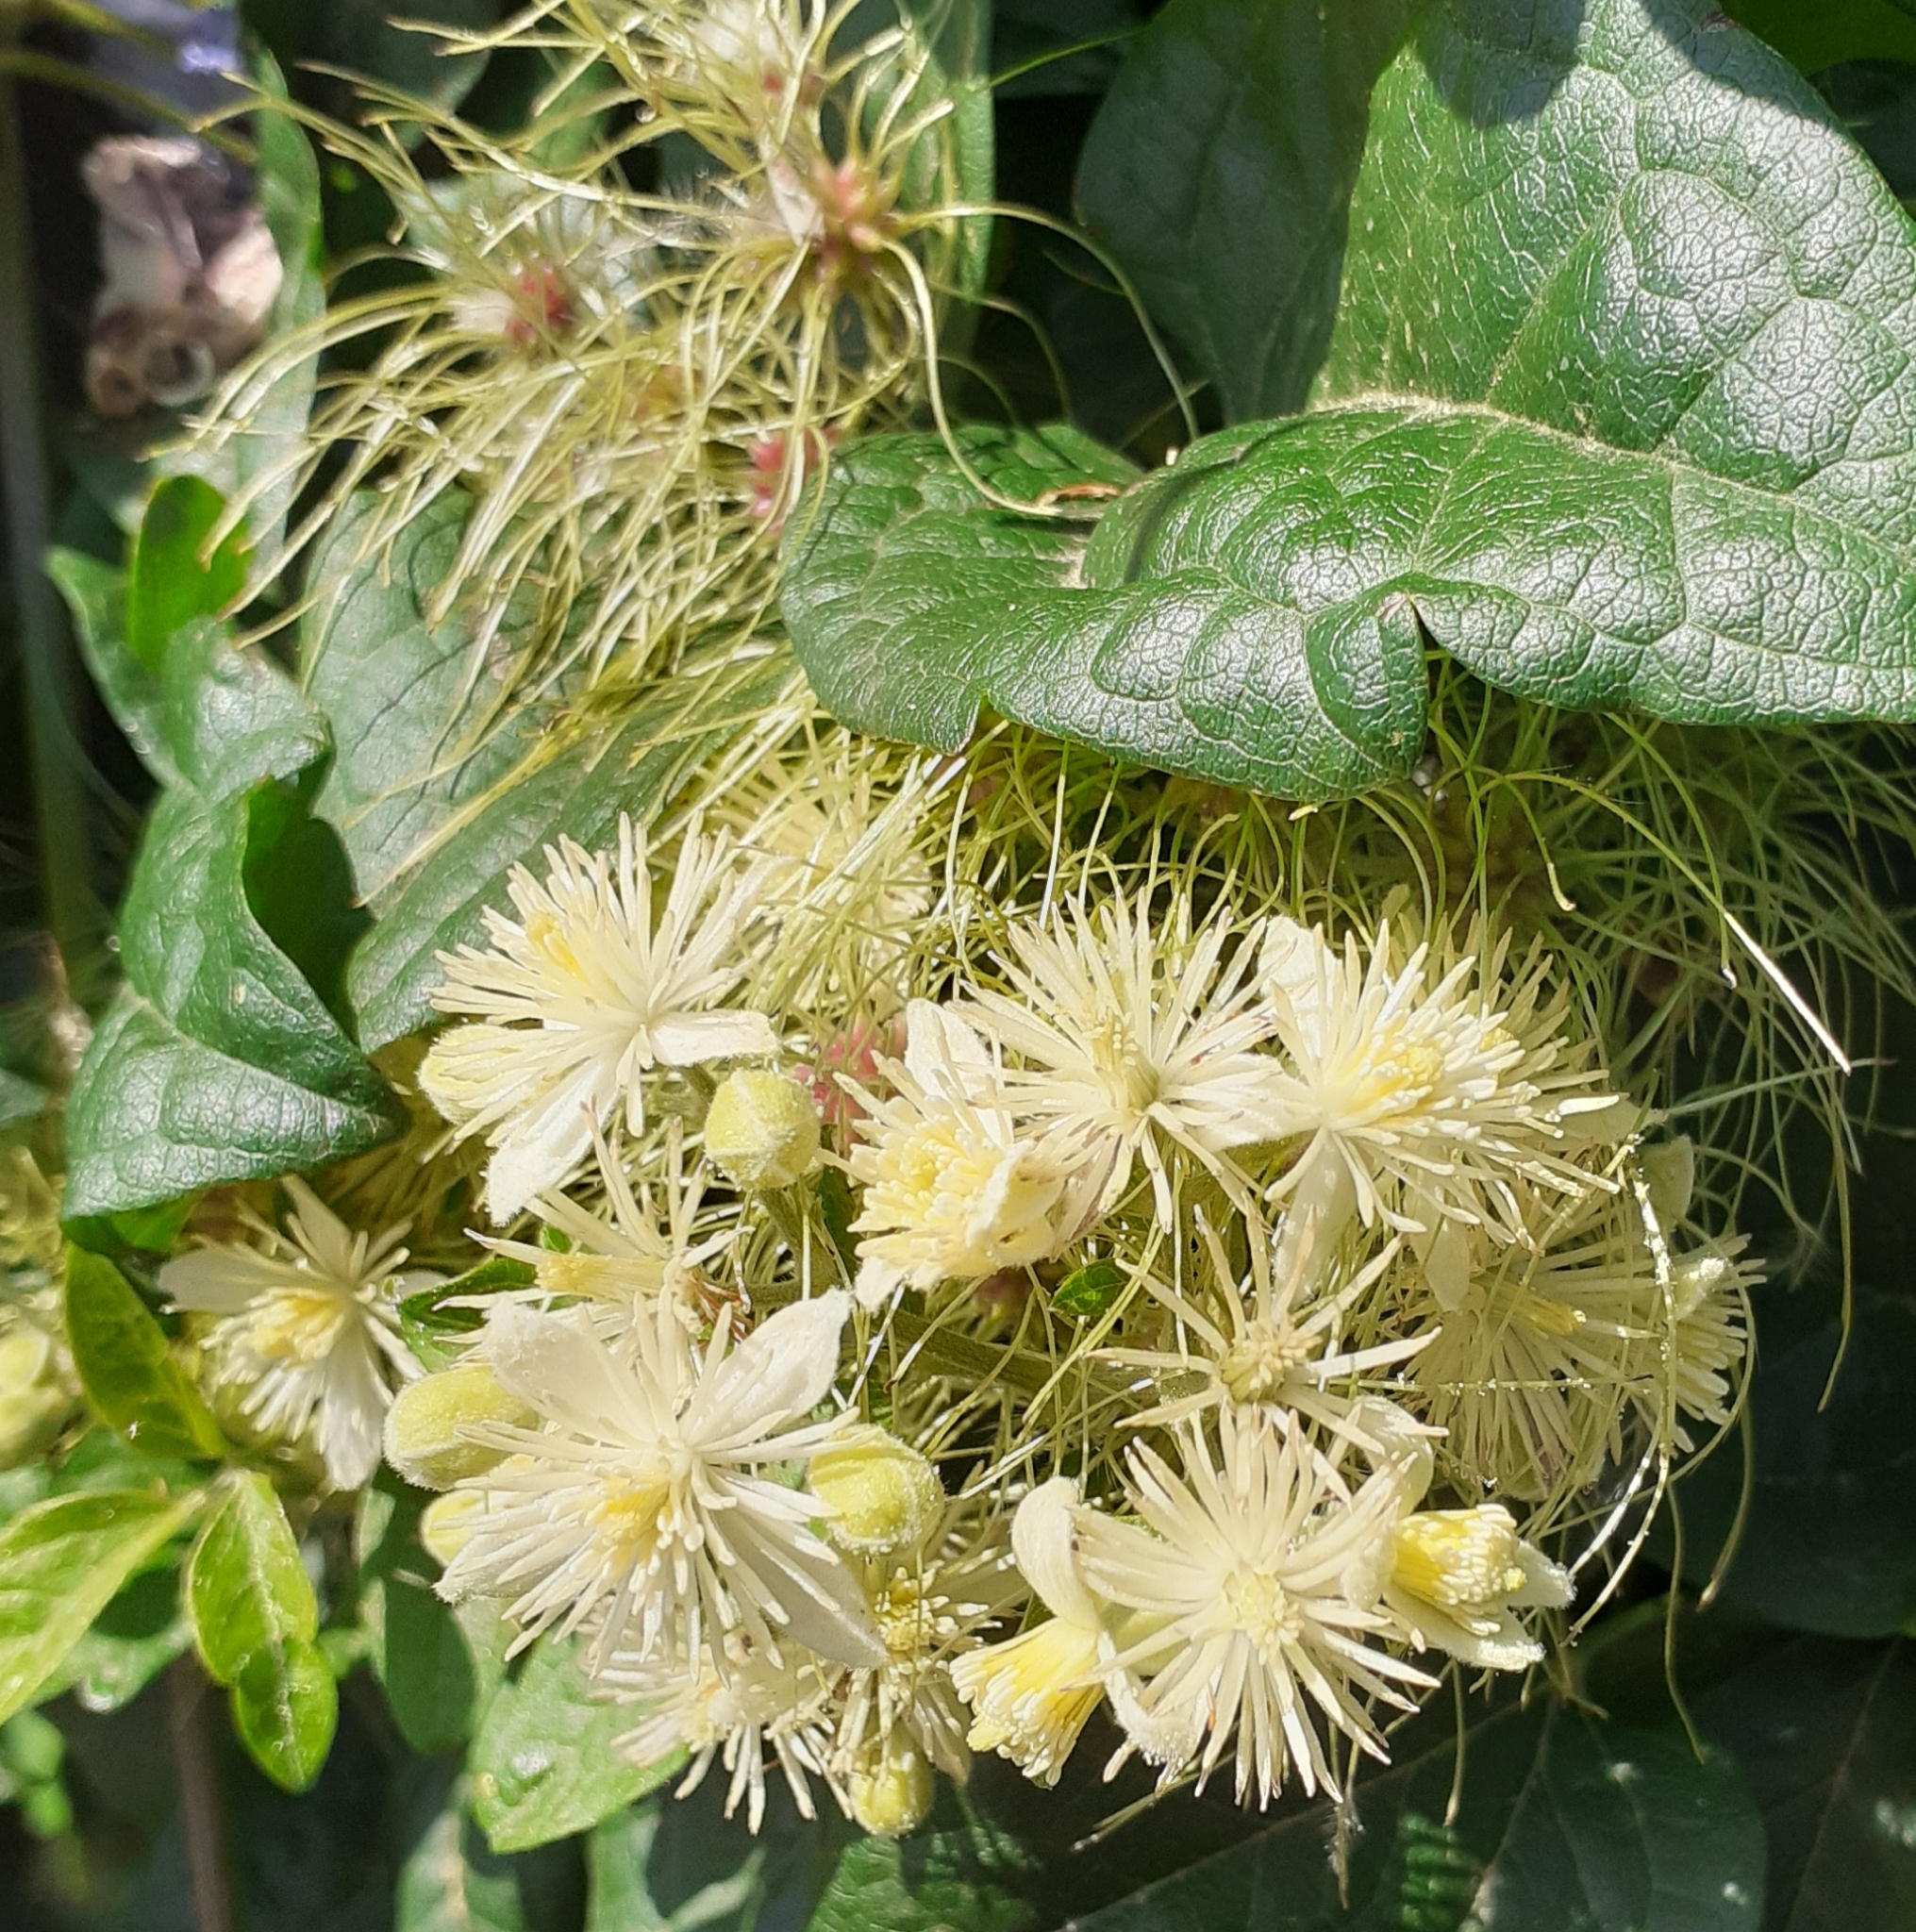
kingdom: Plantae
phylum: Tracheophyta
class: Magnoliopsida
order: Ranunculales
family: Ranunculaceae
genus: Clematis
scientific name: Clematis vitalba
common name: Evergreen clematis
